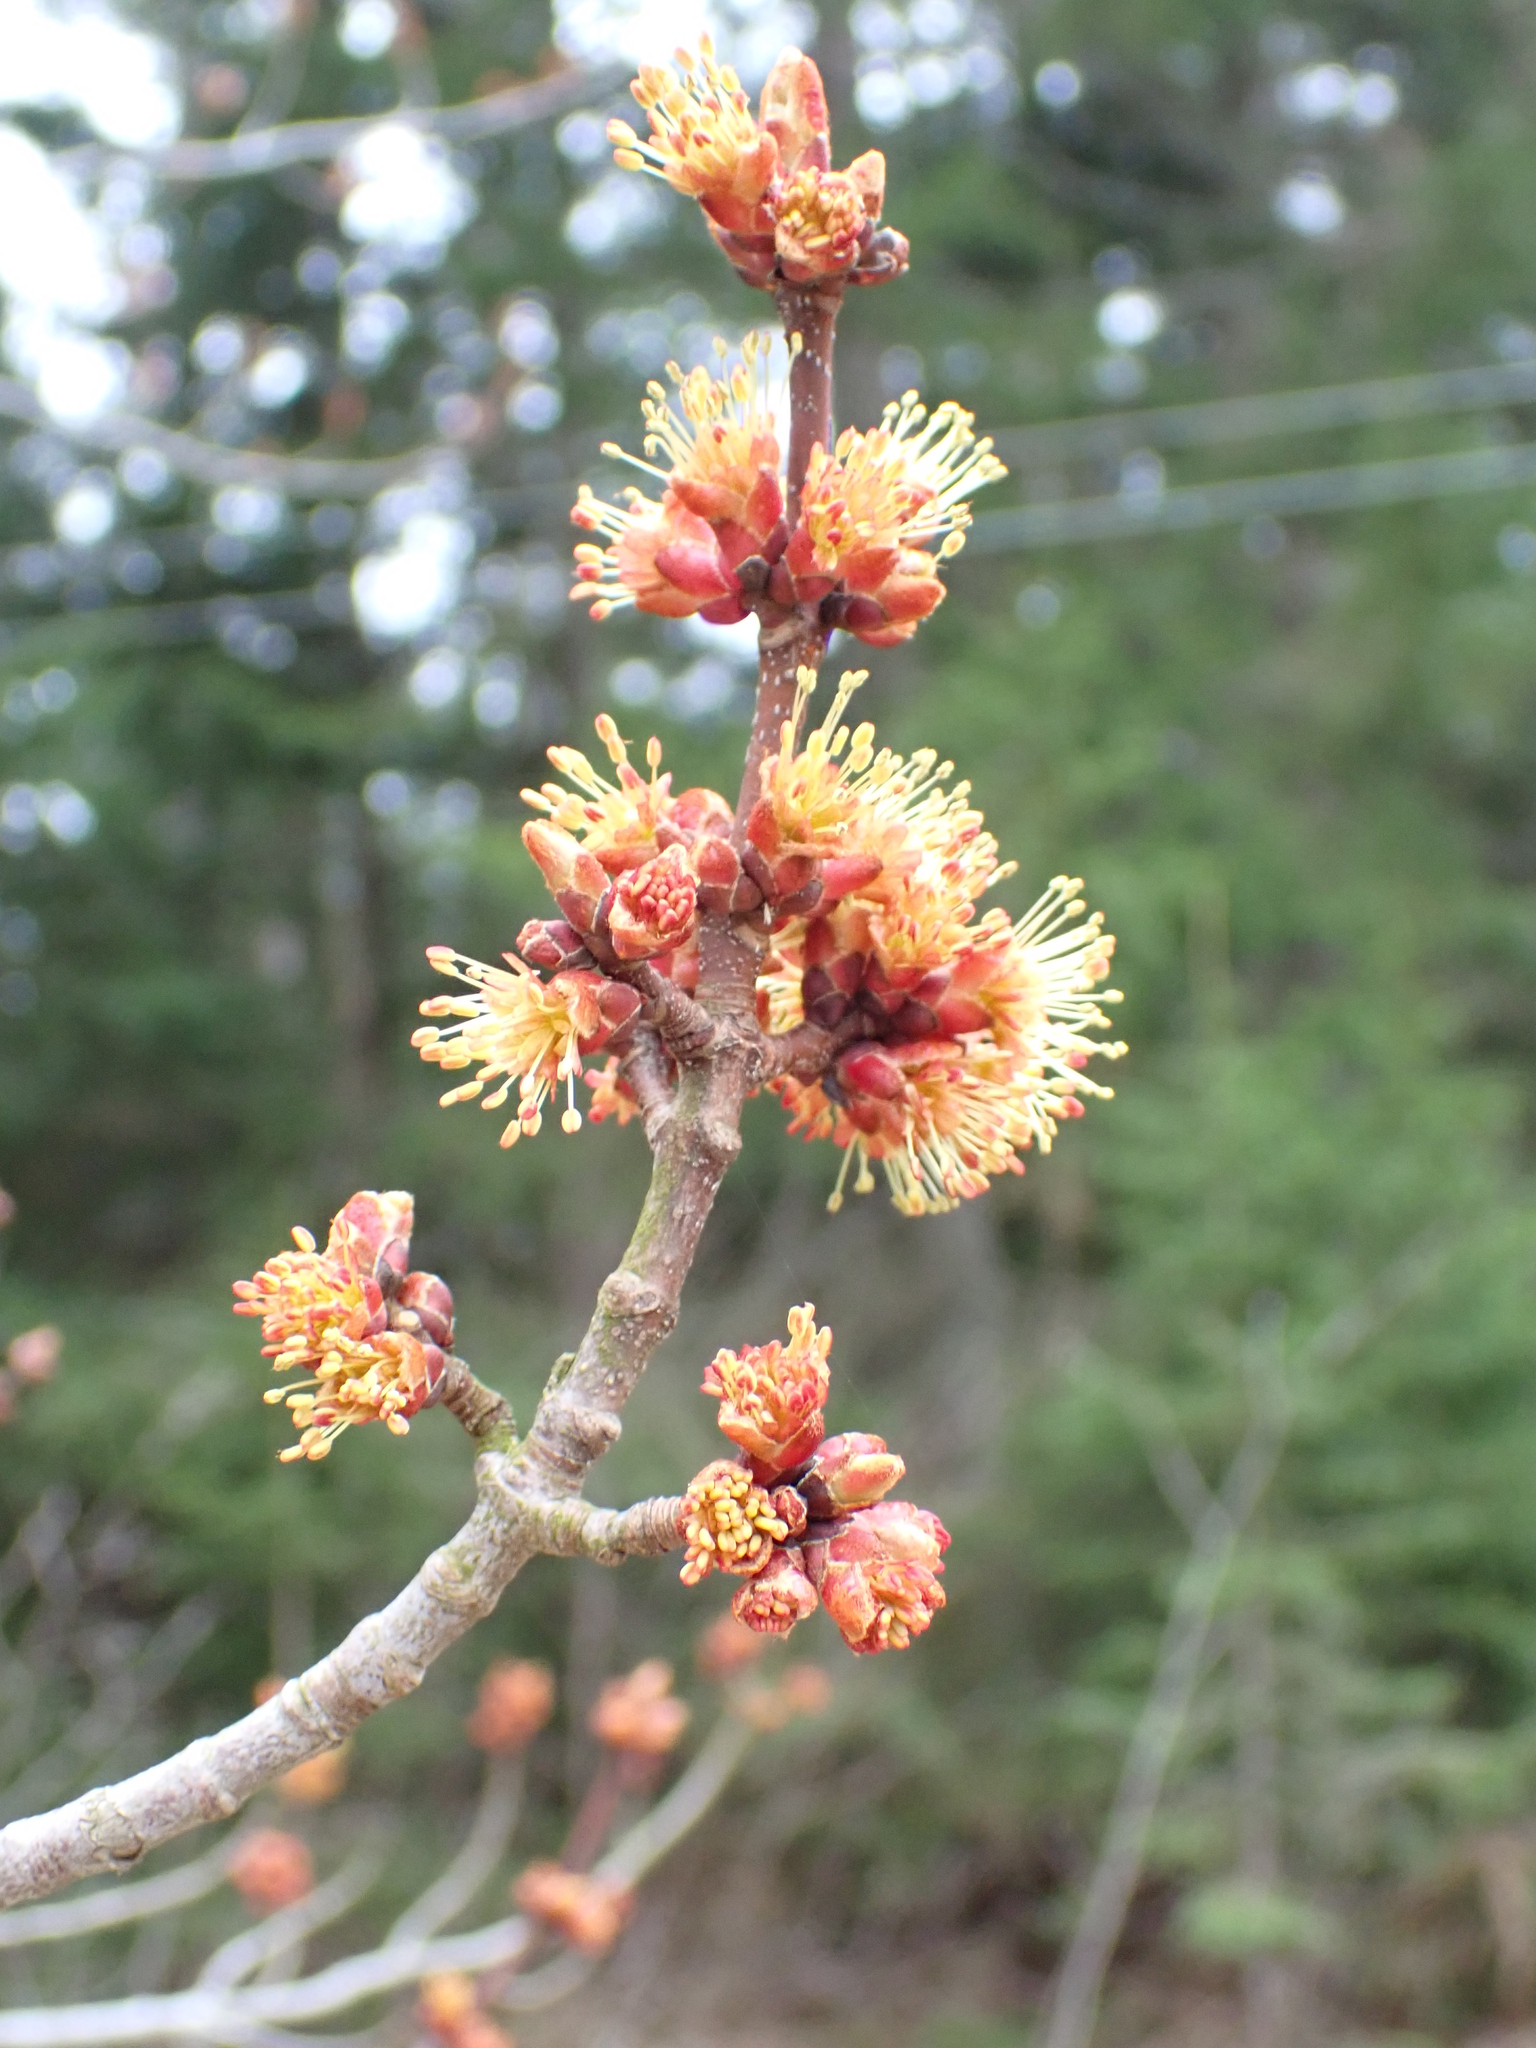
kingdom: Plantae
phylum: Tracheophyta
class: Magnoliopsida
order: Sapindales
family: Sapindaceae
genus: Acer
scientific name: Acer rubrum
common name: Red maple
